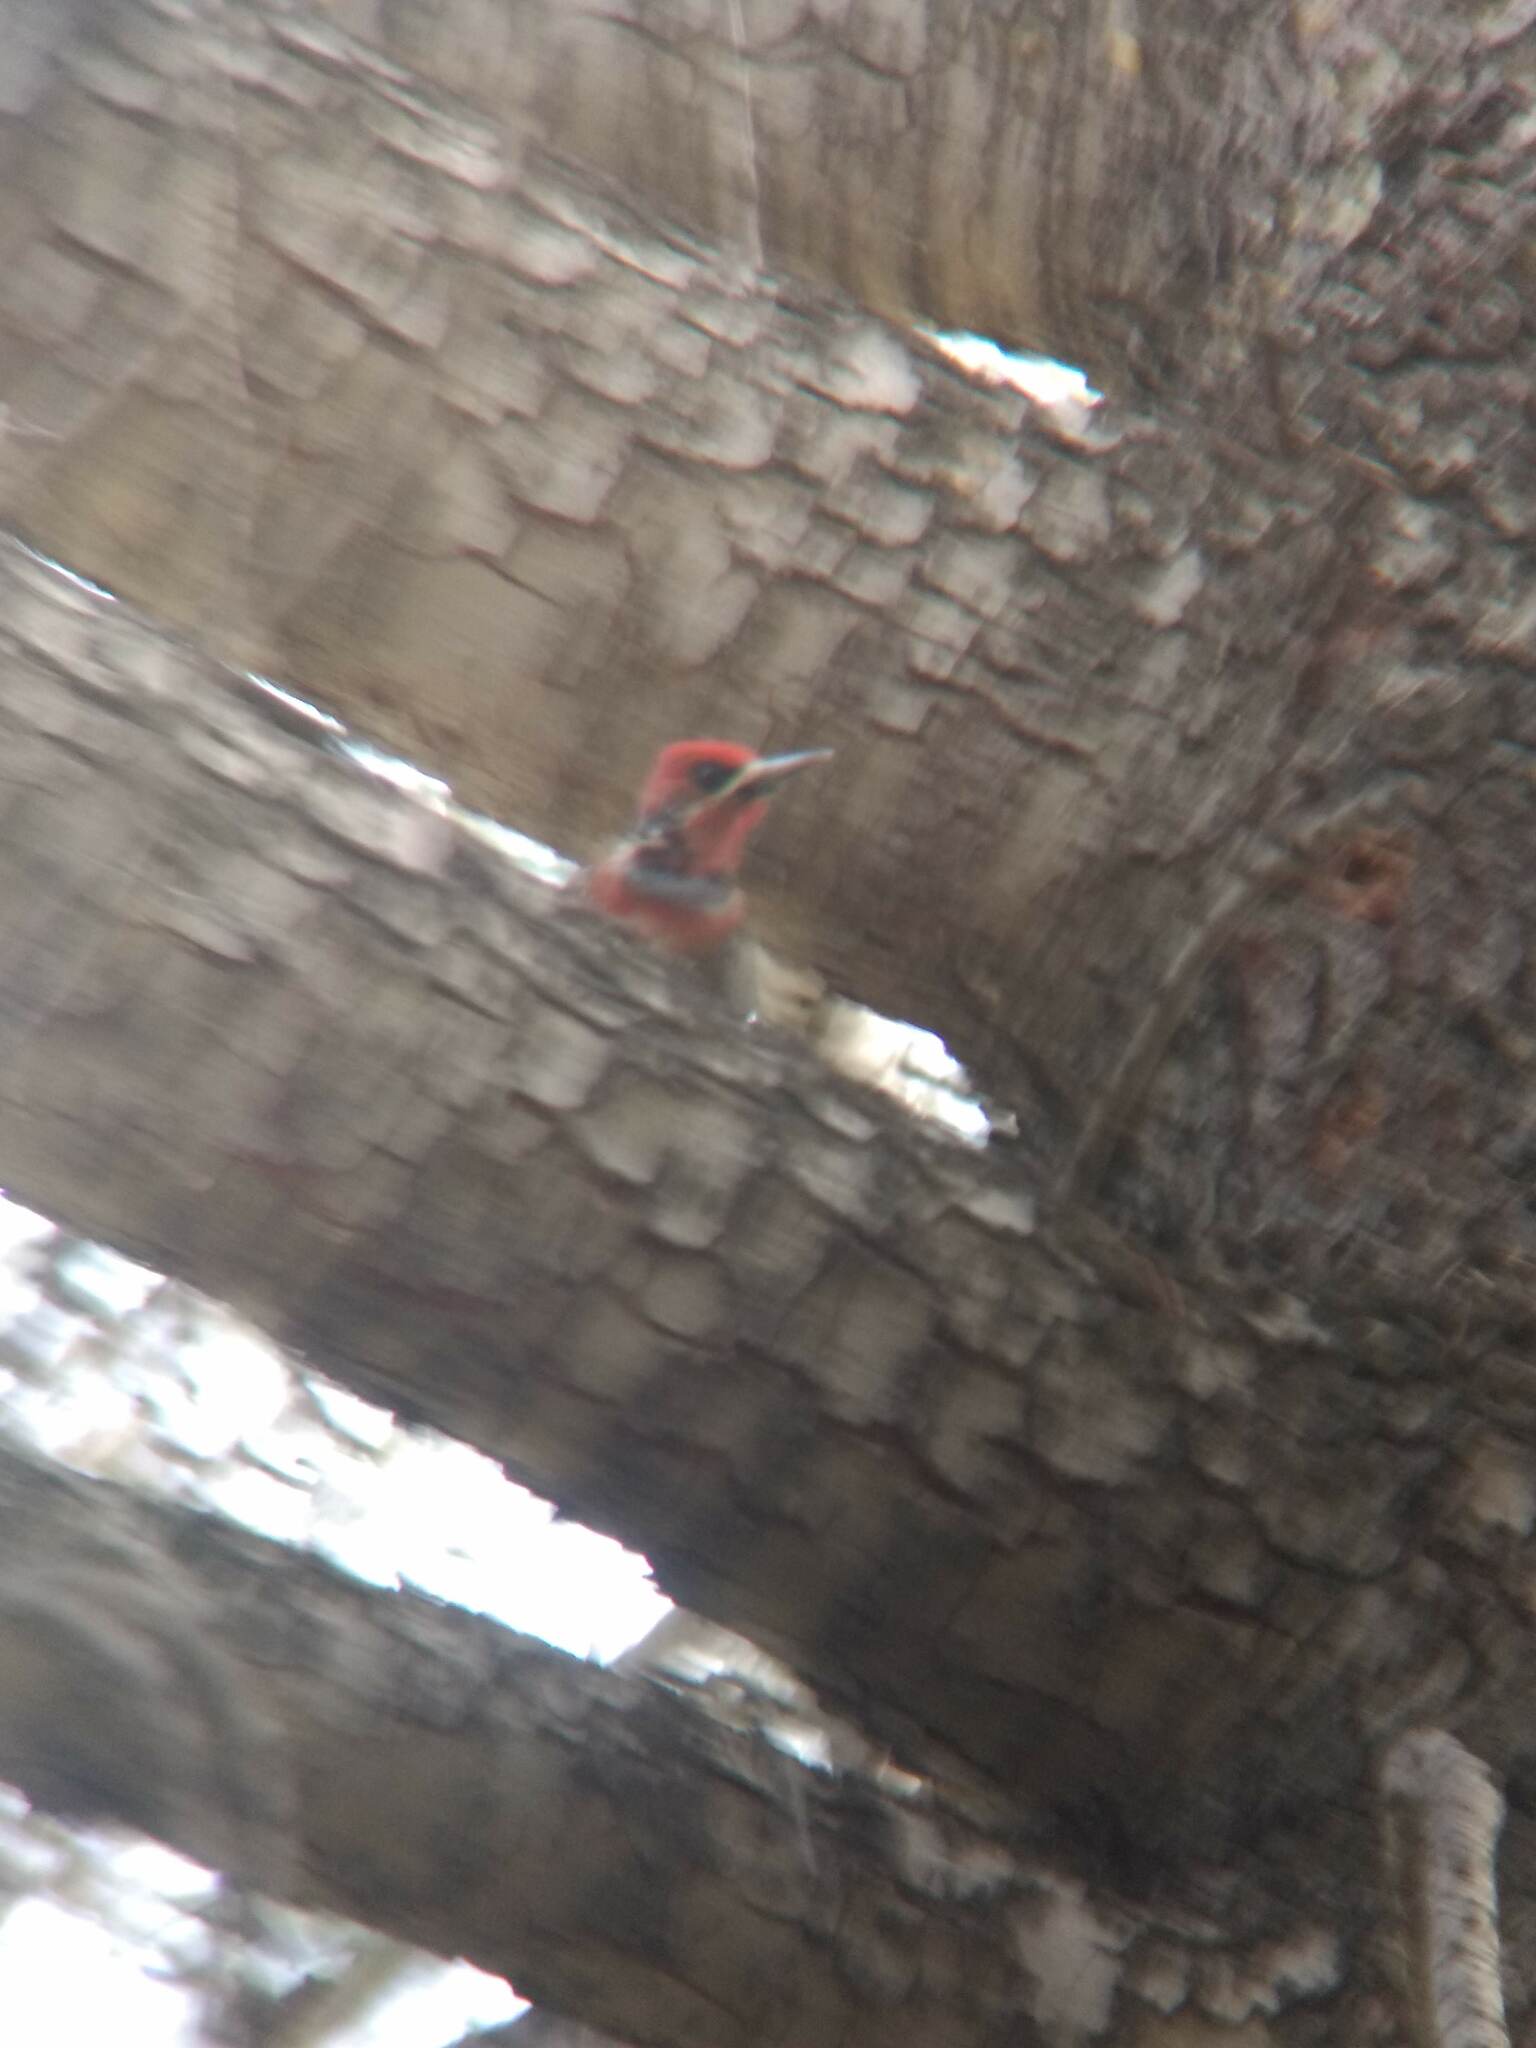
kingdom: Animalia
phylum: Chordata
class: Aves
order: Piciformes
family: Picidae
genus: Sphyrapicus
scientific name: Sphyrapicus ruber
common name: Red-breasted sapsucker
